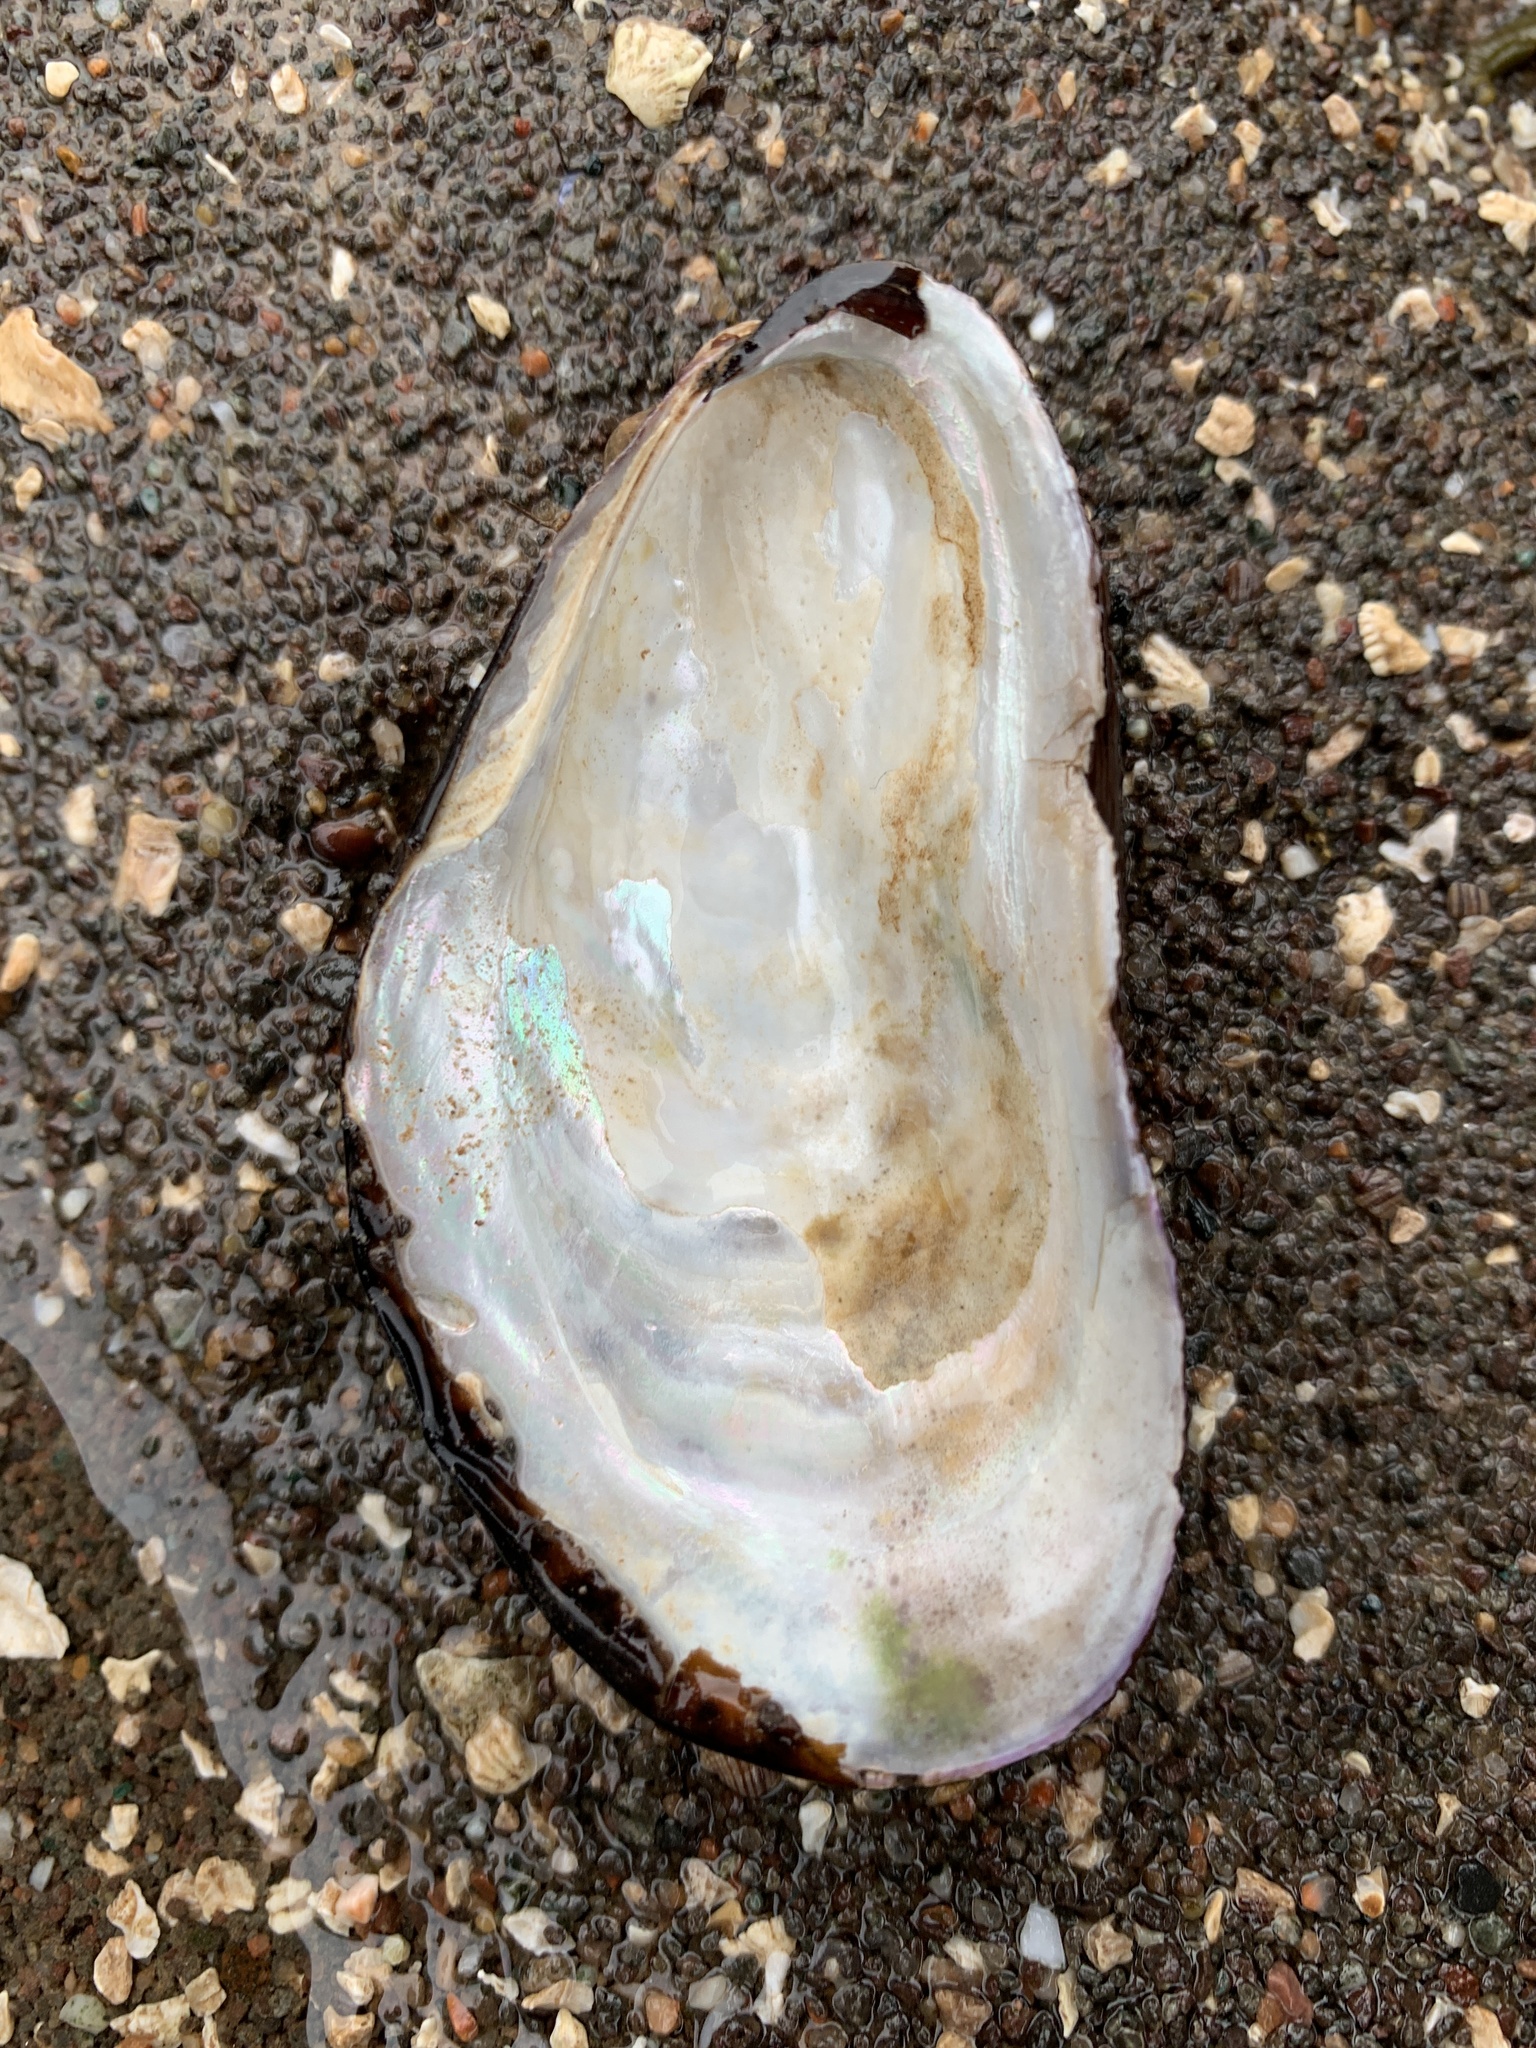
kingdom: Animalia
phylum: Mollusca
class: Bivalvia
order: Mytilida
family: Mytilidae
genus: Modiolus
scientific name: Modiolus modiolus
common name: Horse-mussel
